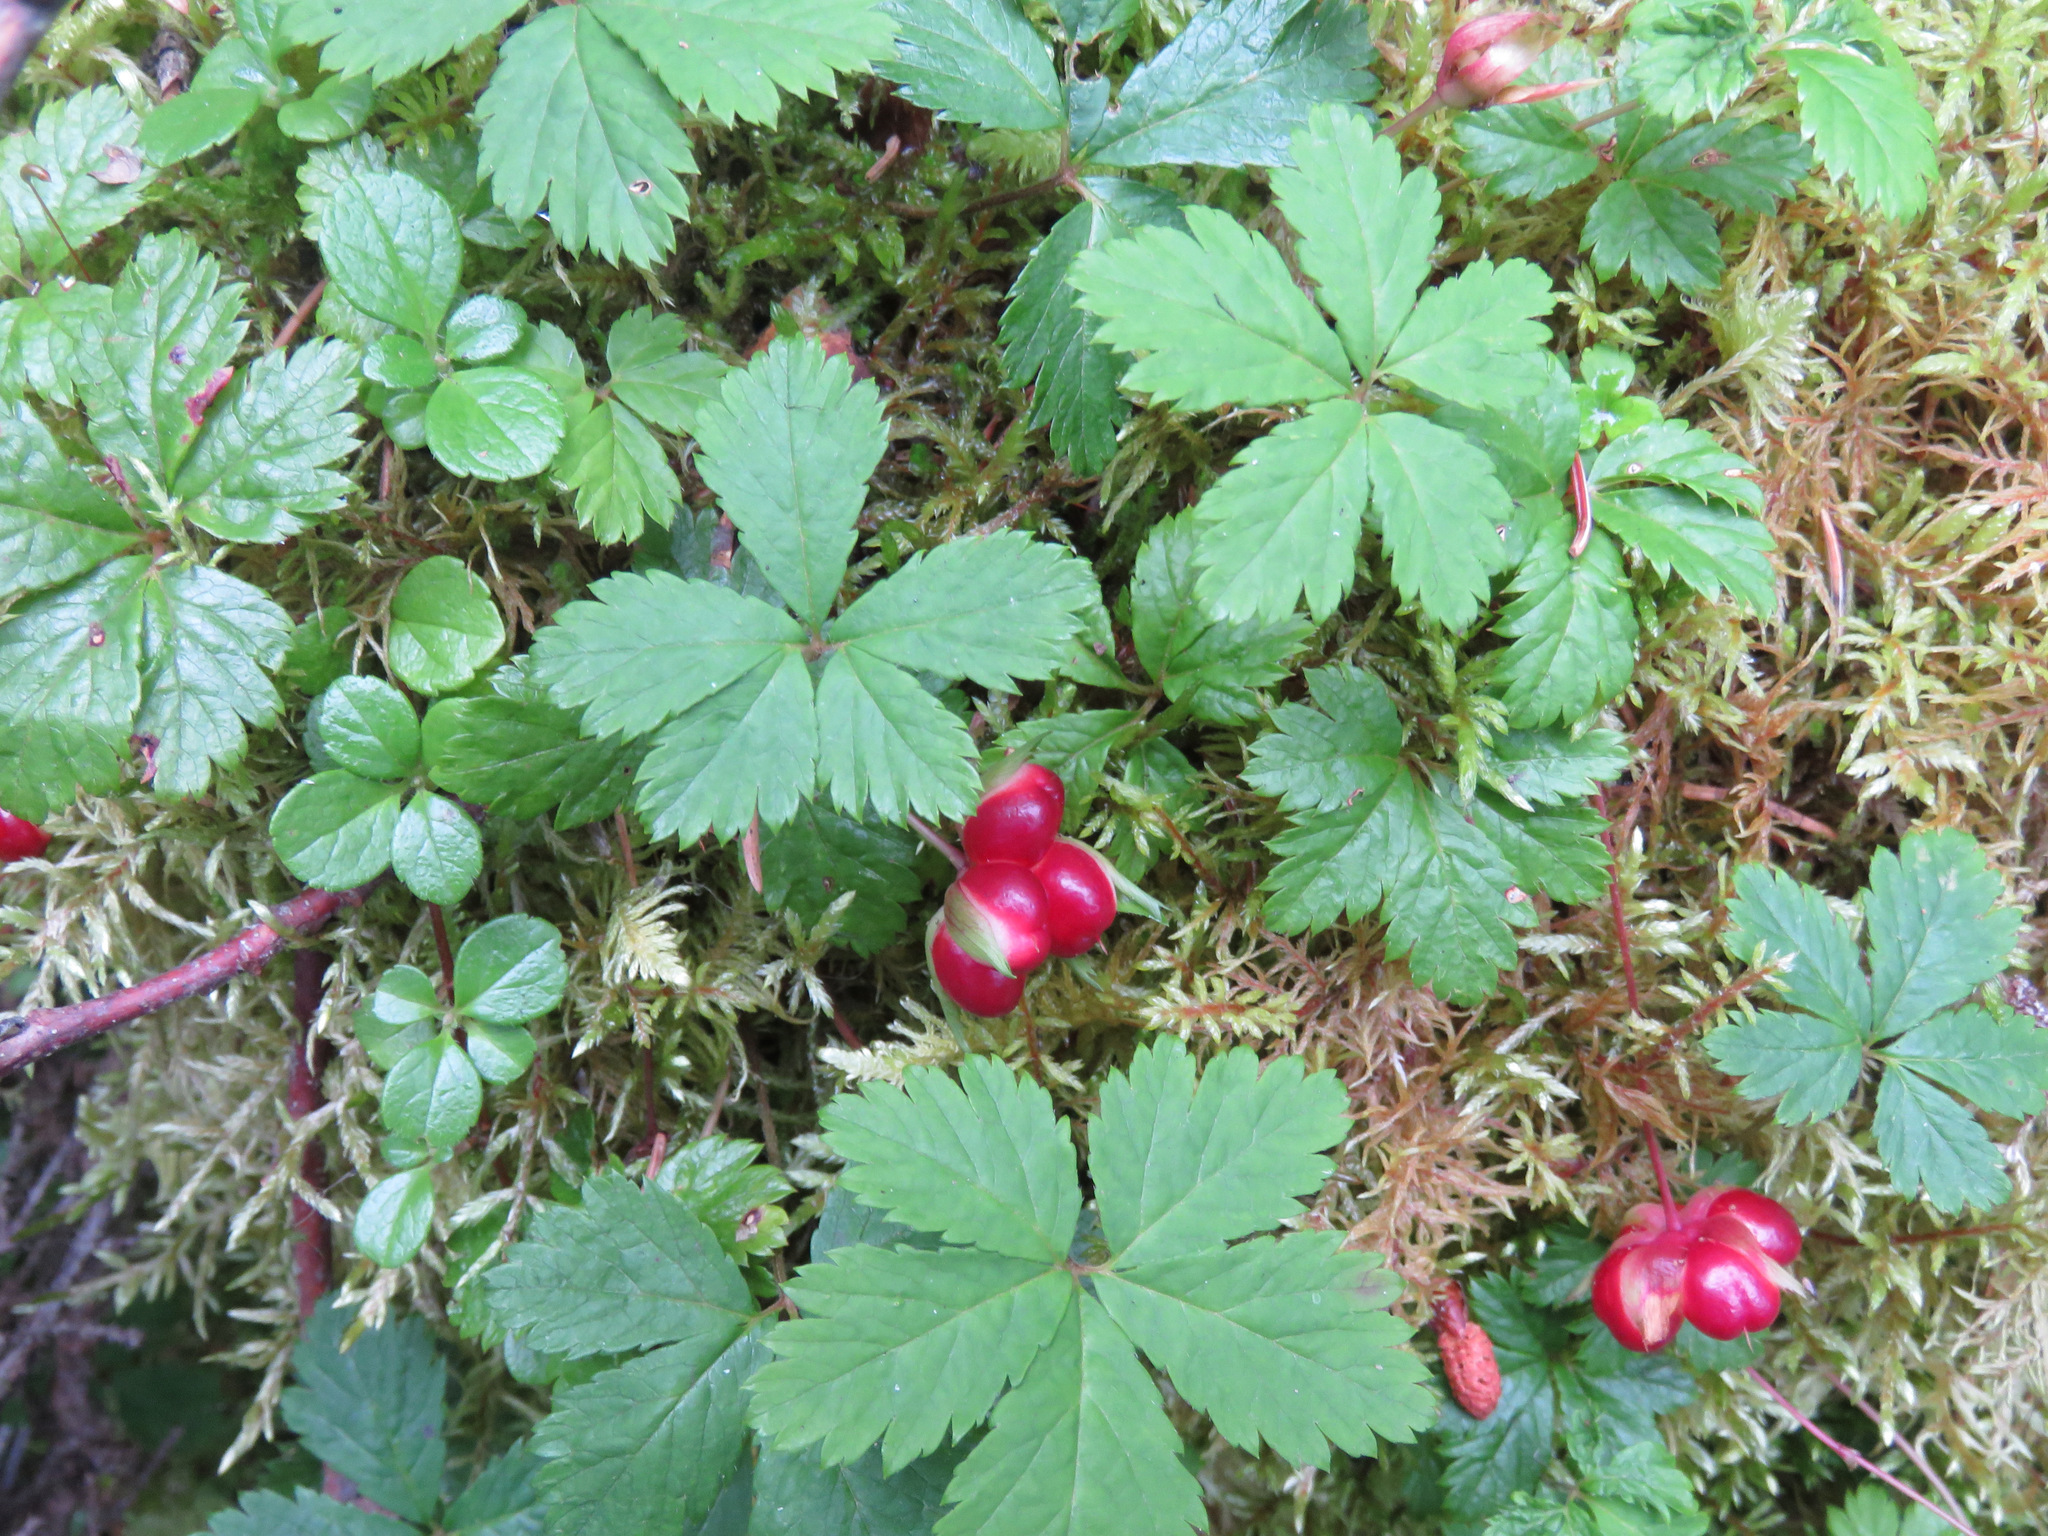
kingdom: Plantae
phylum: Tracheophyta
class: Magnoliopsida
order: Rosales
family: Rosaceae
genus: Rubus
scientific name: Rubus pedatus
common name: Creeping raspberry
